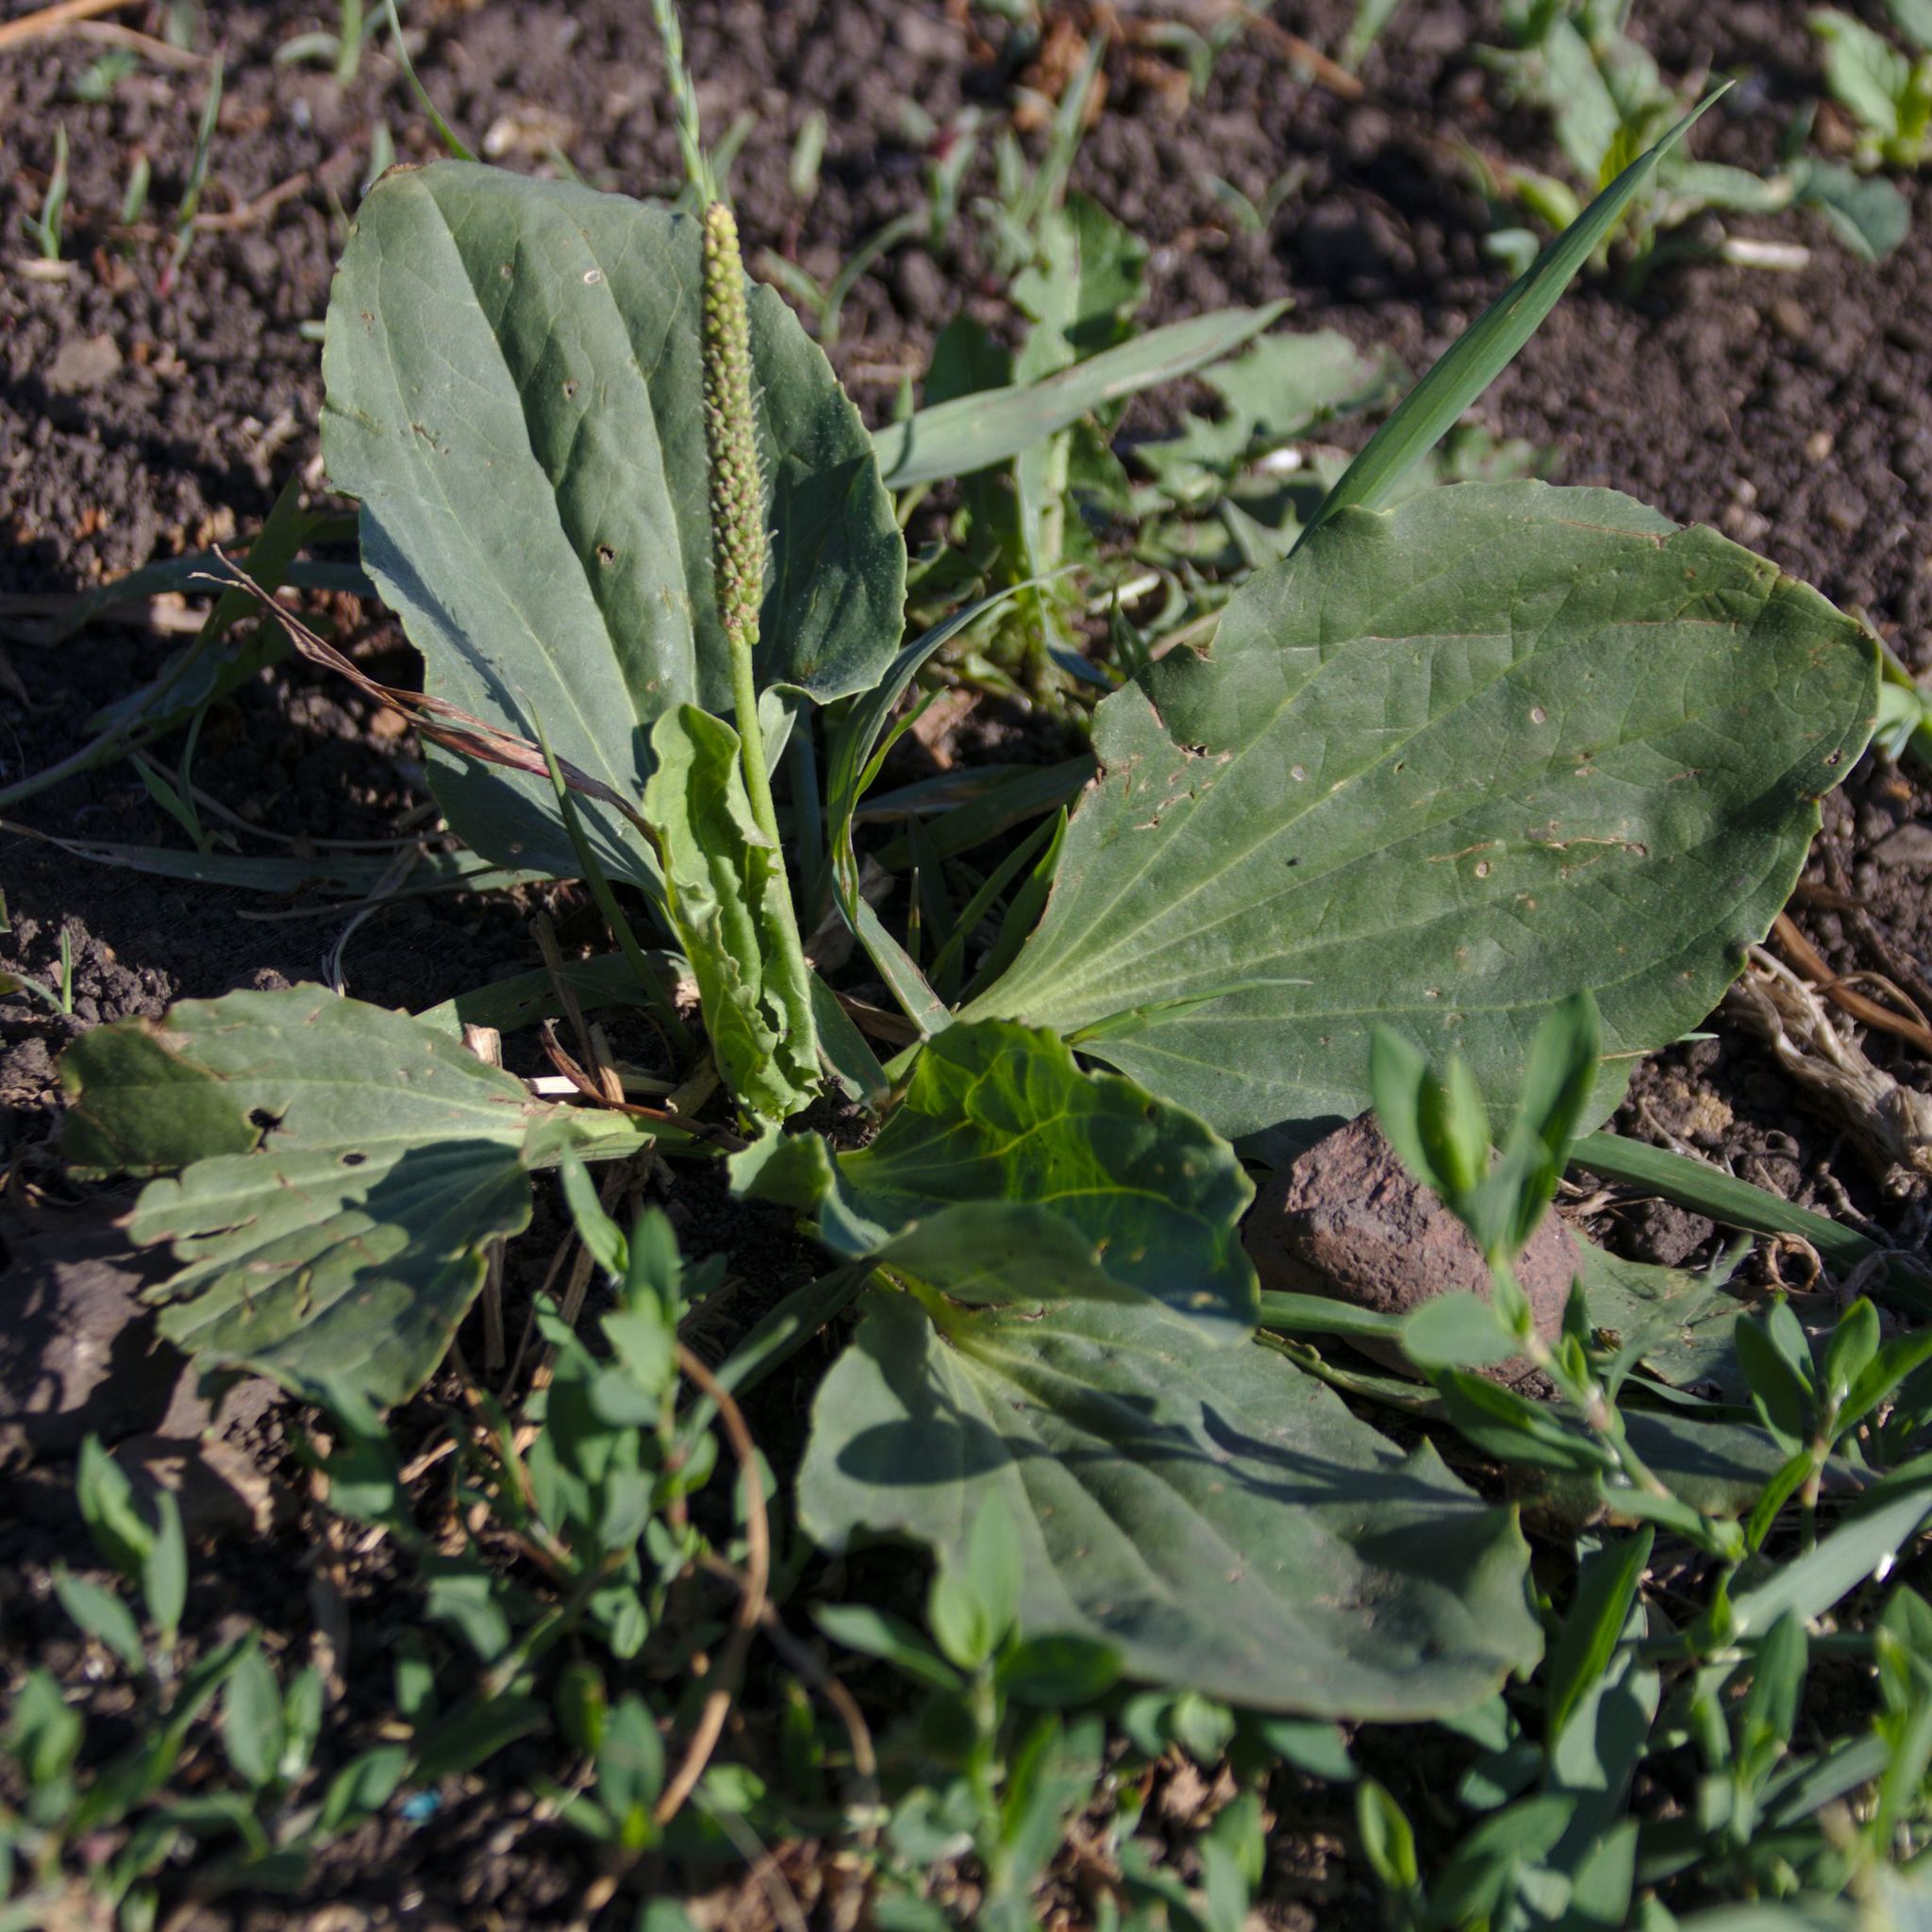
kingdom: Plantae
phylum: Tracheophyta
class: Magnoliopsida
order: Lamiales
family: Plantaginaceae
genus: Plantago
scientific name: Plantago major
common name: Common plantain
